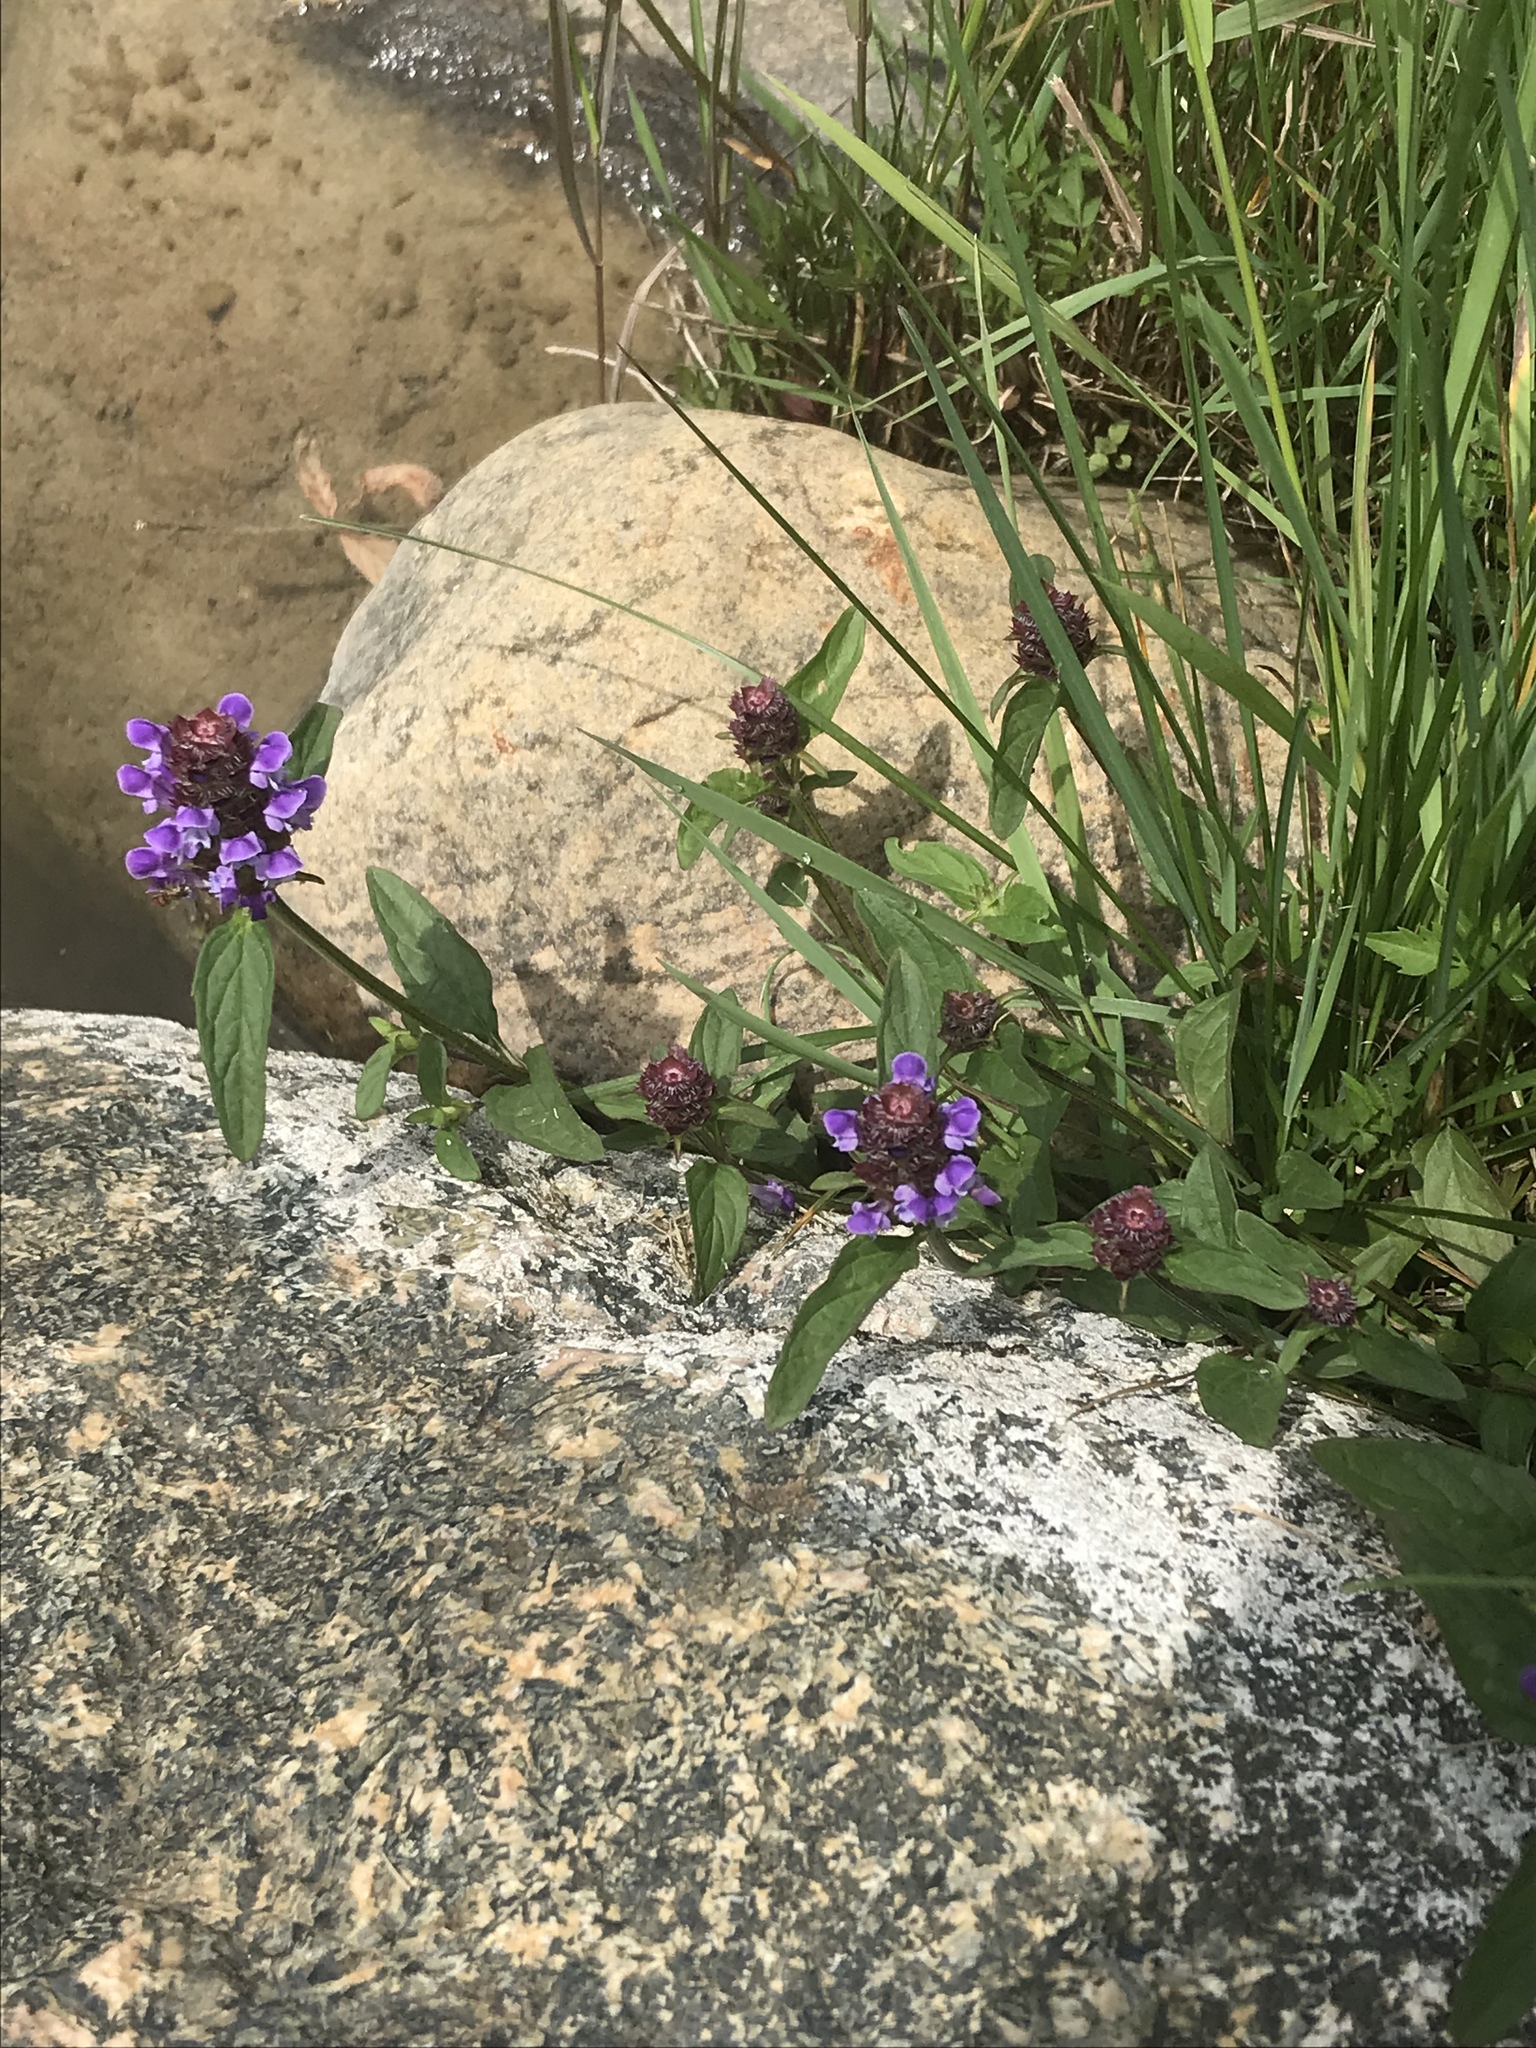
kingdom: Plantae
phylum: Tracheophyta
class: Magnoliopsida
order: Lamiales
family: Lamiaceae
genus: Prunella
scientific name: Prunella vulgaris
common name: Heal-all
